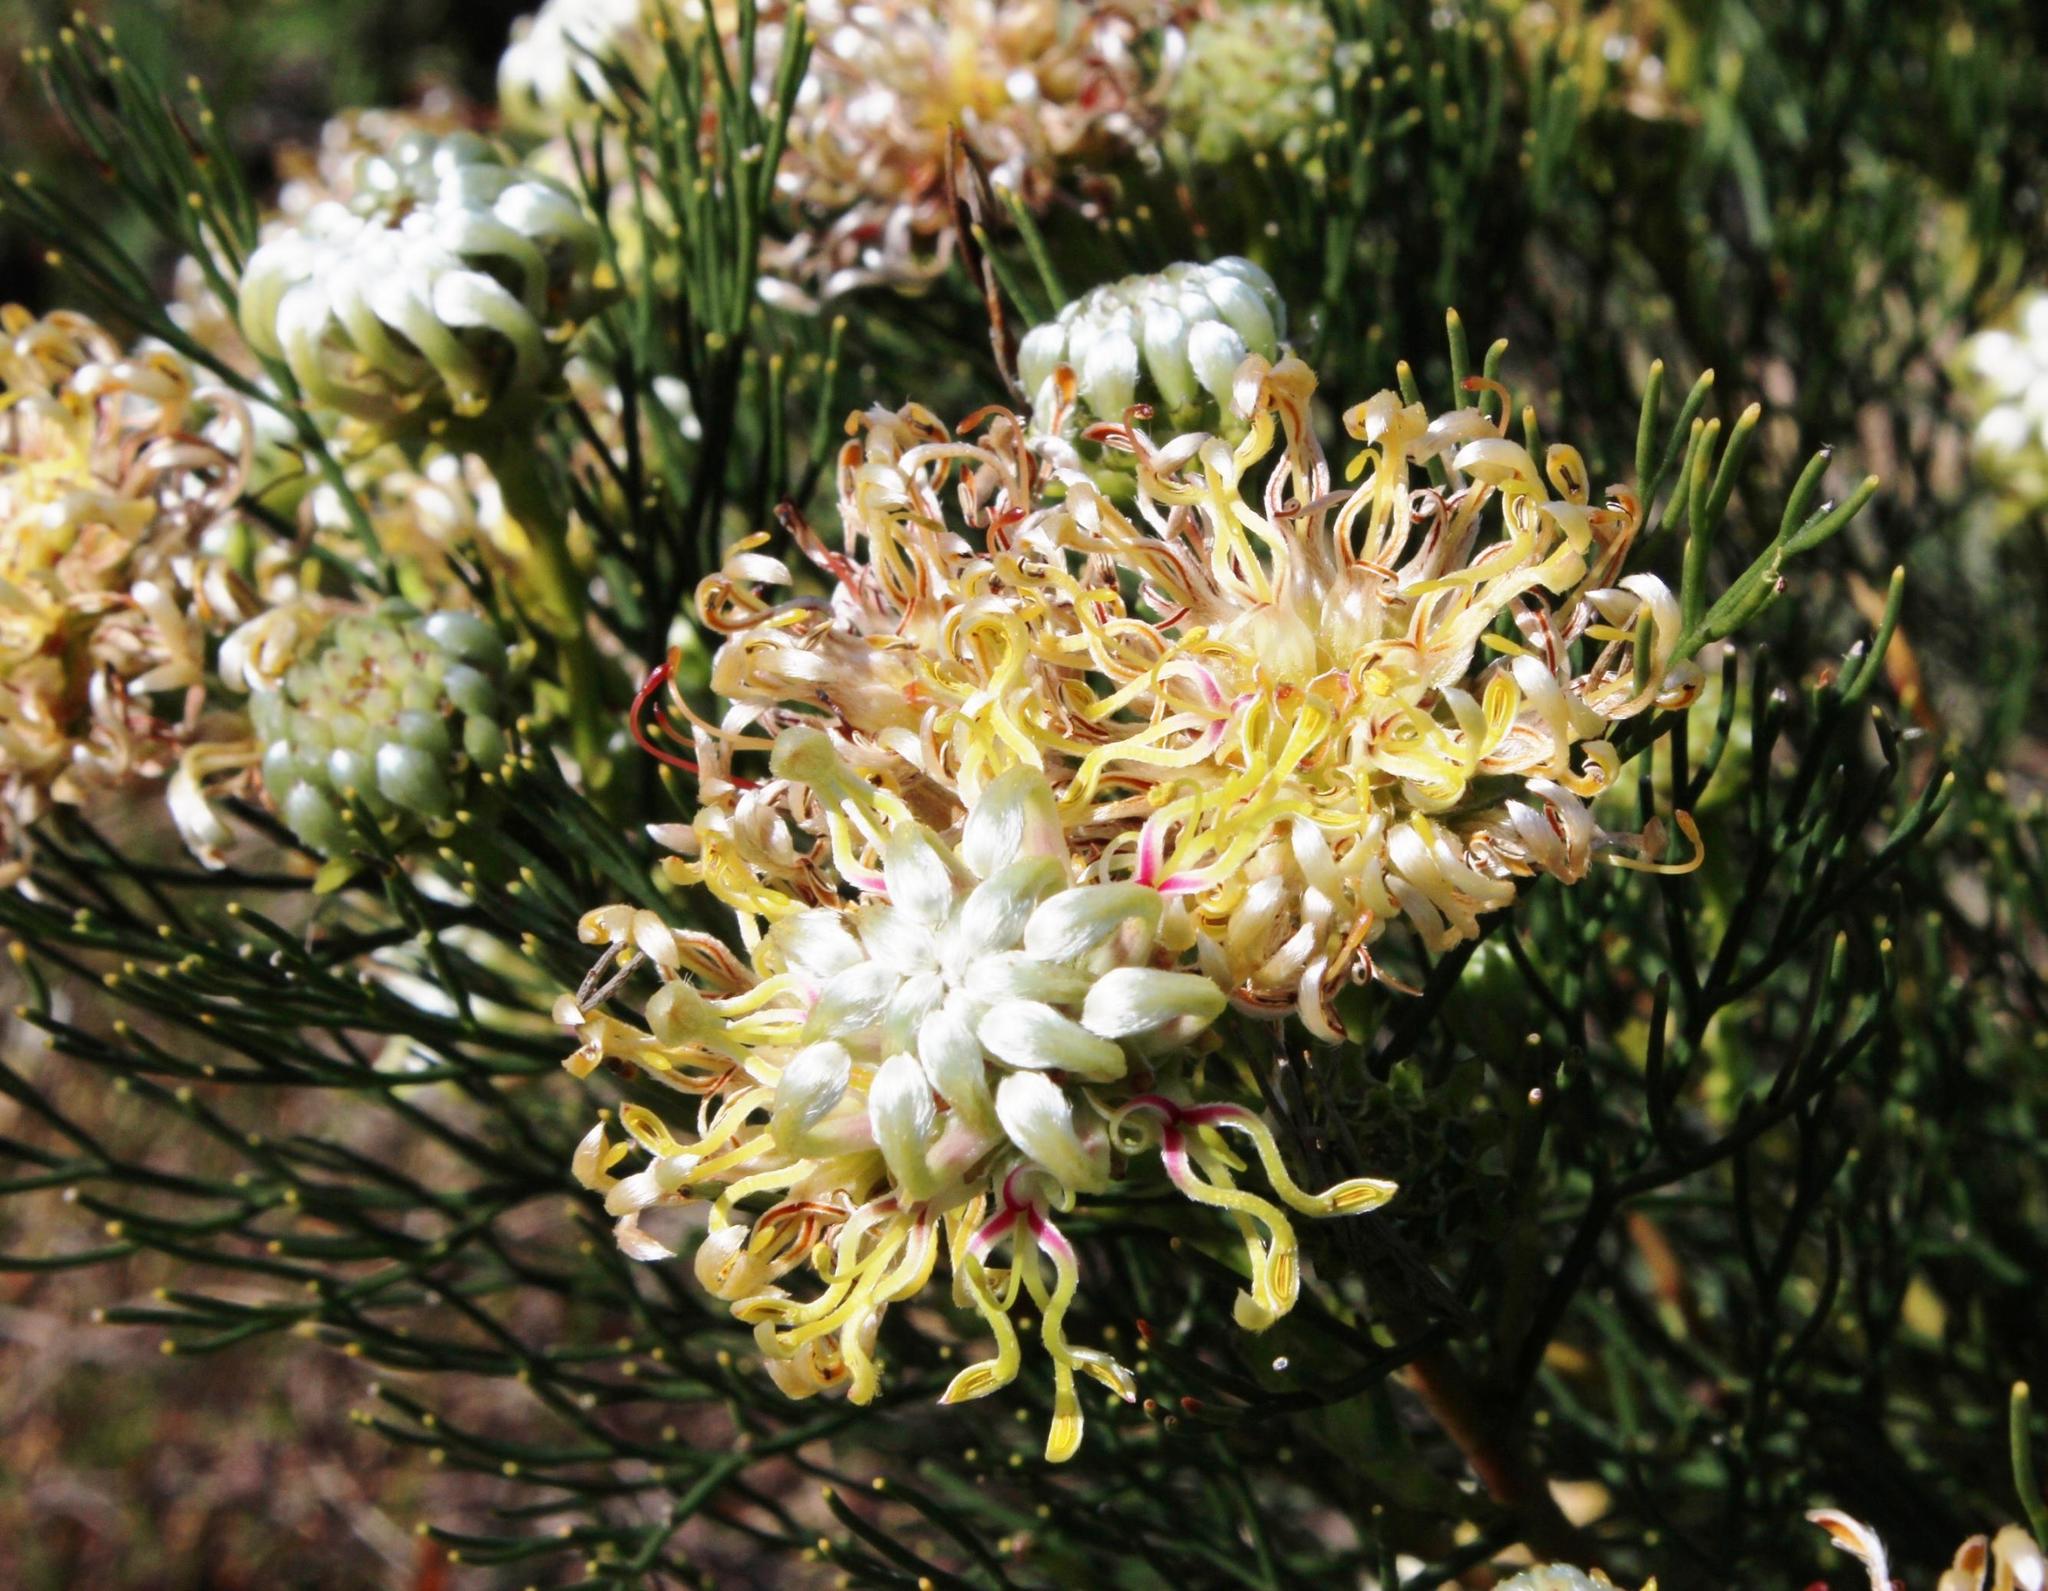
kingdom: Plantae
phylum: Tracheophyta
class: Magnoliopsida
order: Proteales
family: Proteaceae
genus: Serruria
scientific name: Serruria acrocarpa
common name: Common rootstock spiderhead
